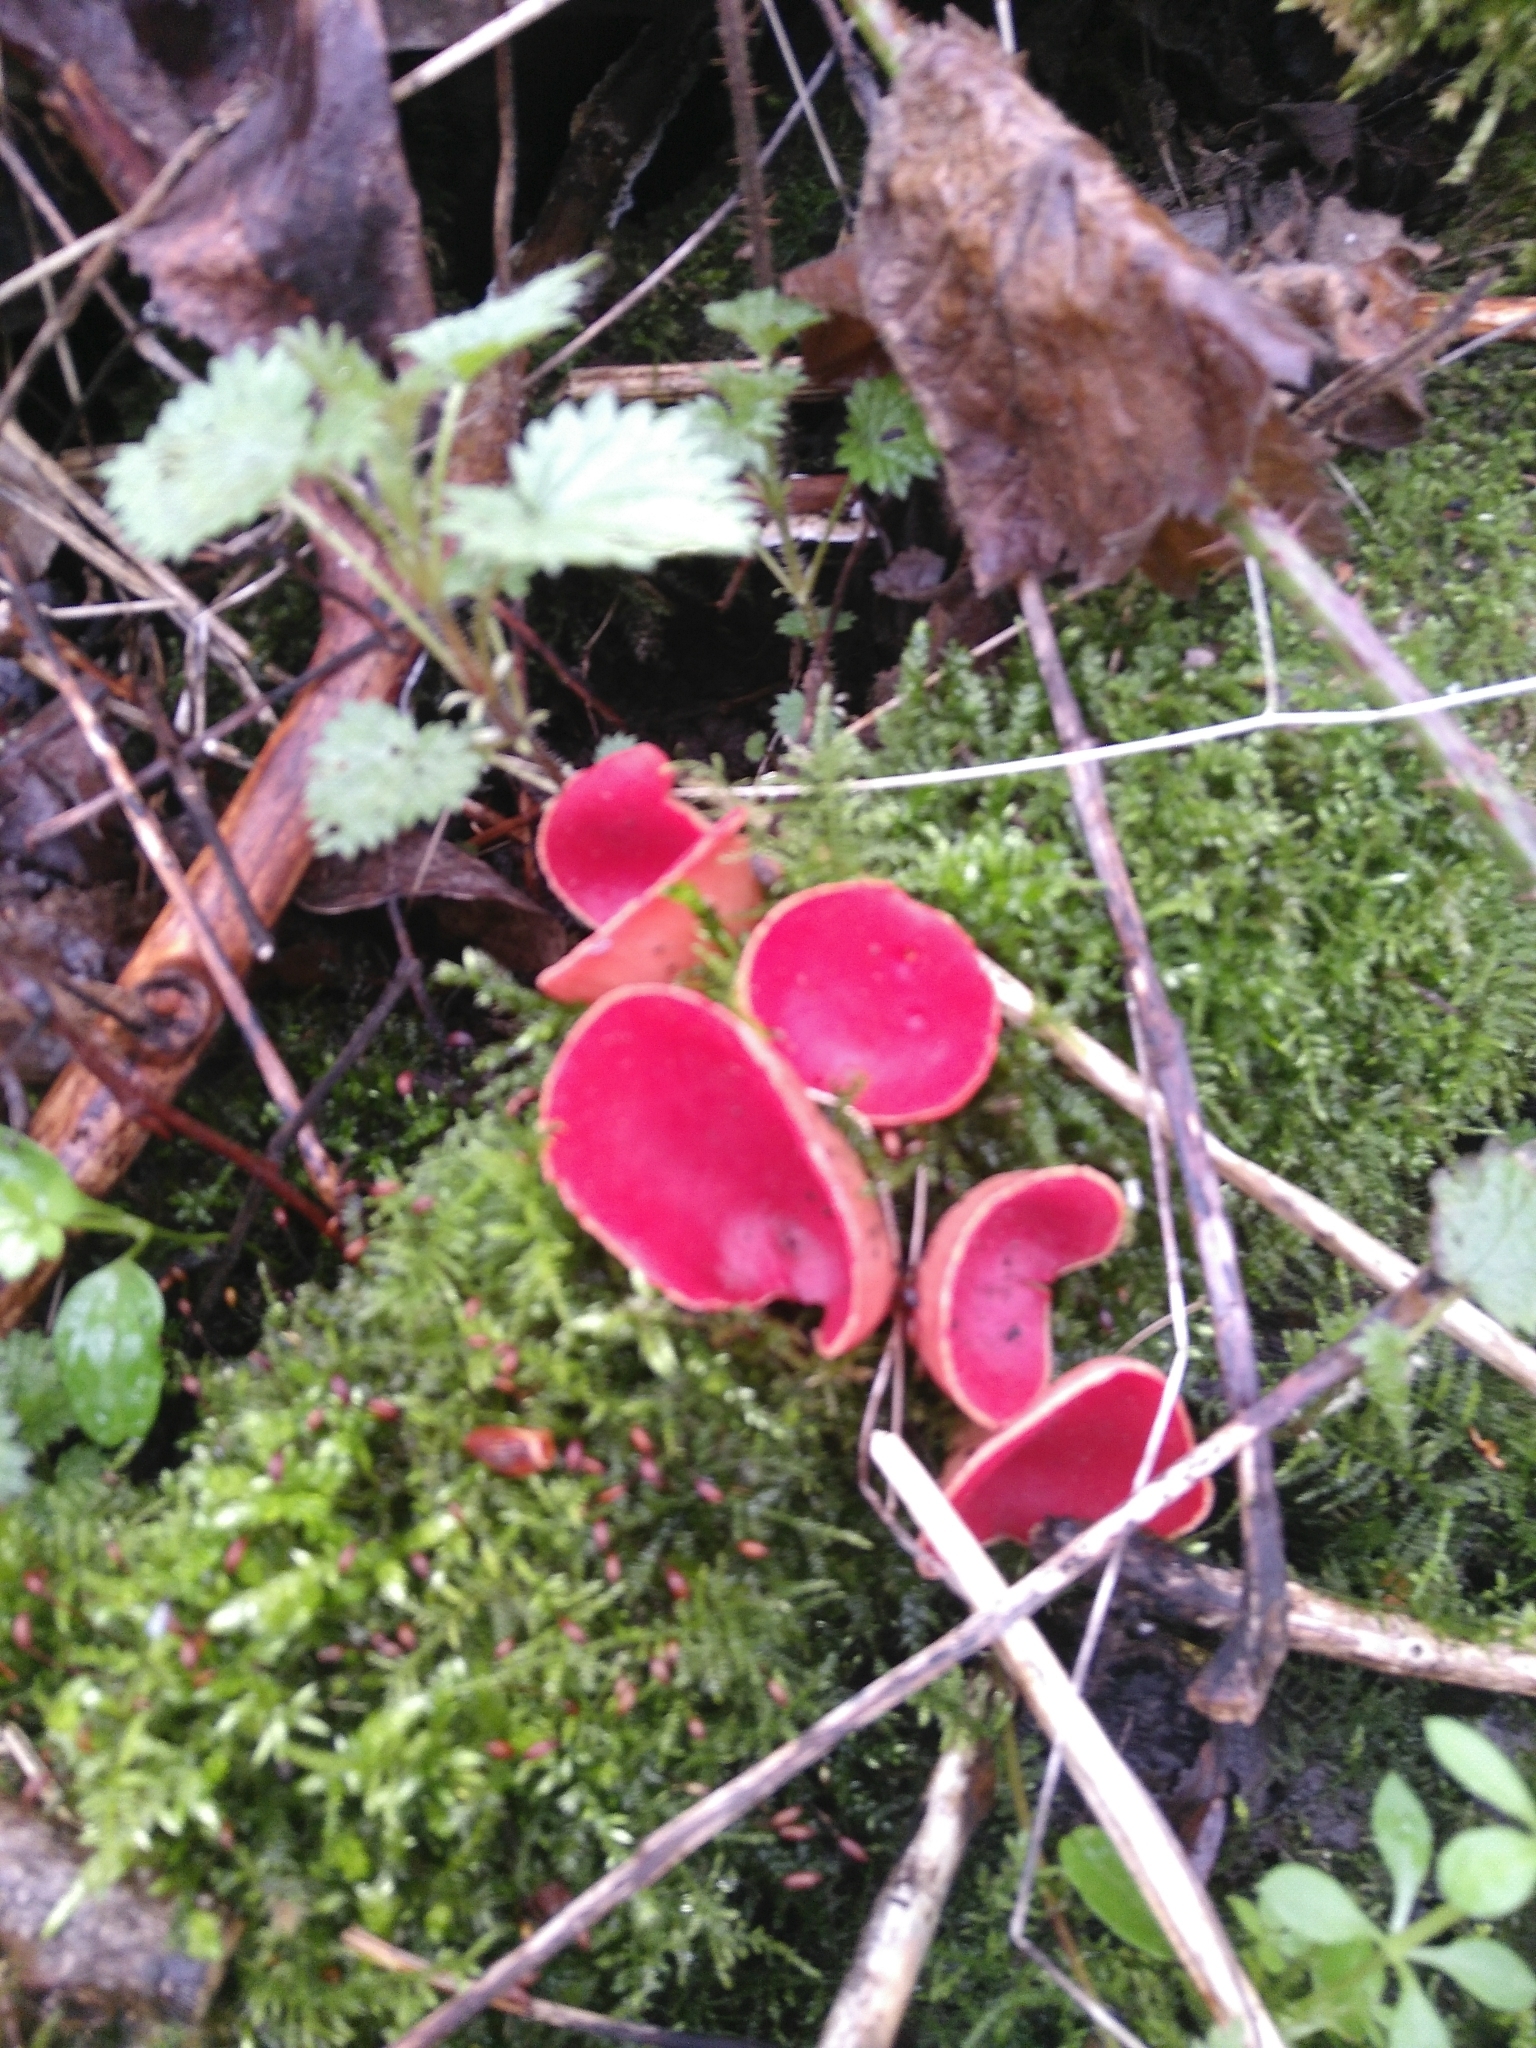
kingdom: Fungi
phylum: Ascomycota
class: Pezizomycetes
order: Pezizales
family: Sarcoscyphaceae
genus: Sarcoscypha
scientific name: Sarcoscypha
